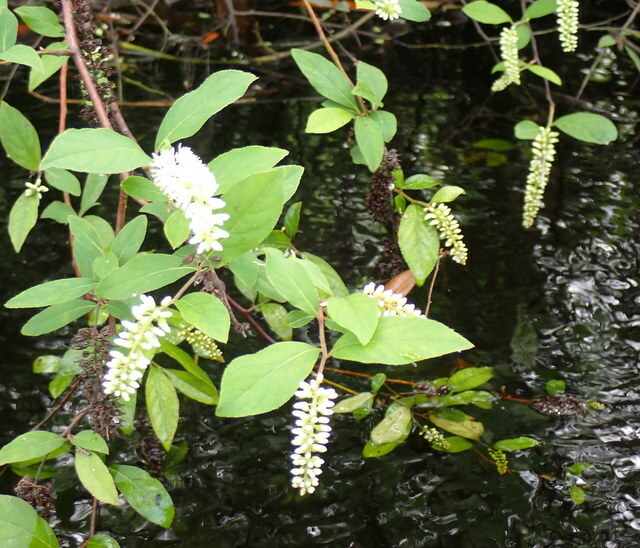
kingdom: Plantae
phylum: Tracheophyta
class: Magnoliopsida
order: Saxifragales
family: Iteaceae
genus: Itea
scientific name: Itea virginica
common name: Sweetspire
